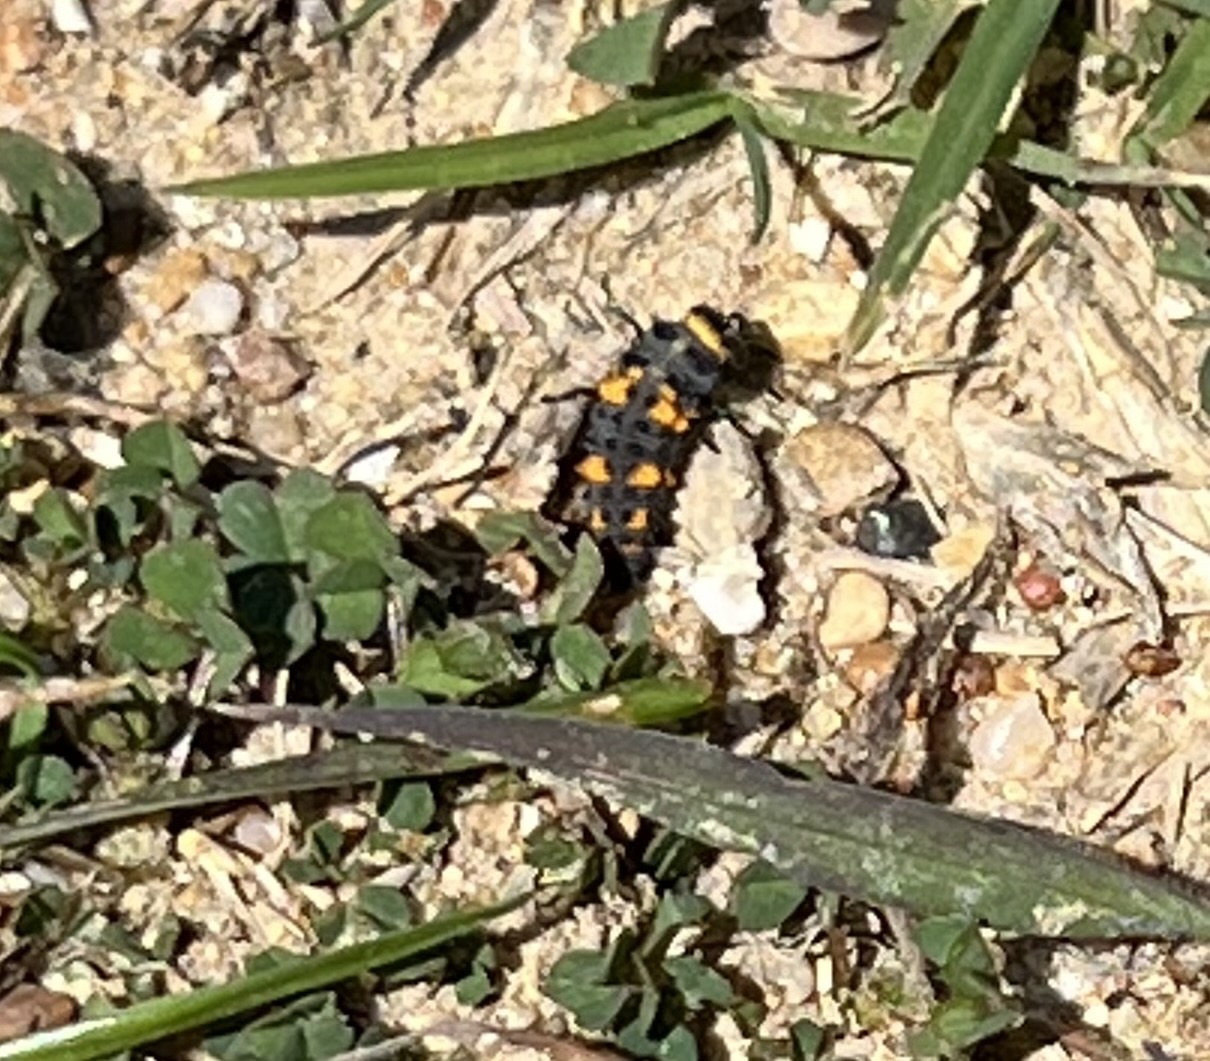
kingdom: Animalia
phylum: Arthropoda
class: Insecta
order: Coleoptera
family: Coccinellidae
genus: Hippodamia
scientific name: Hippodamia convergens
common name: Convergent lady beetle
